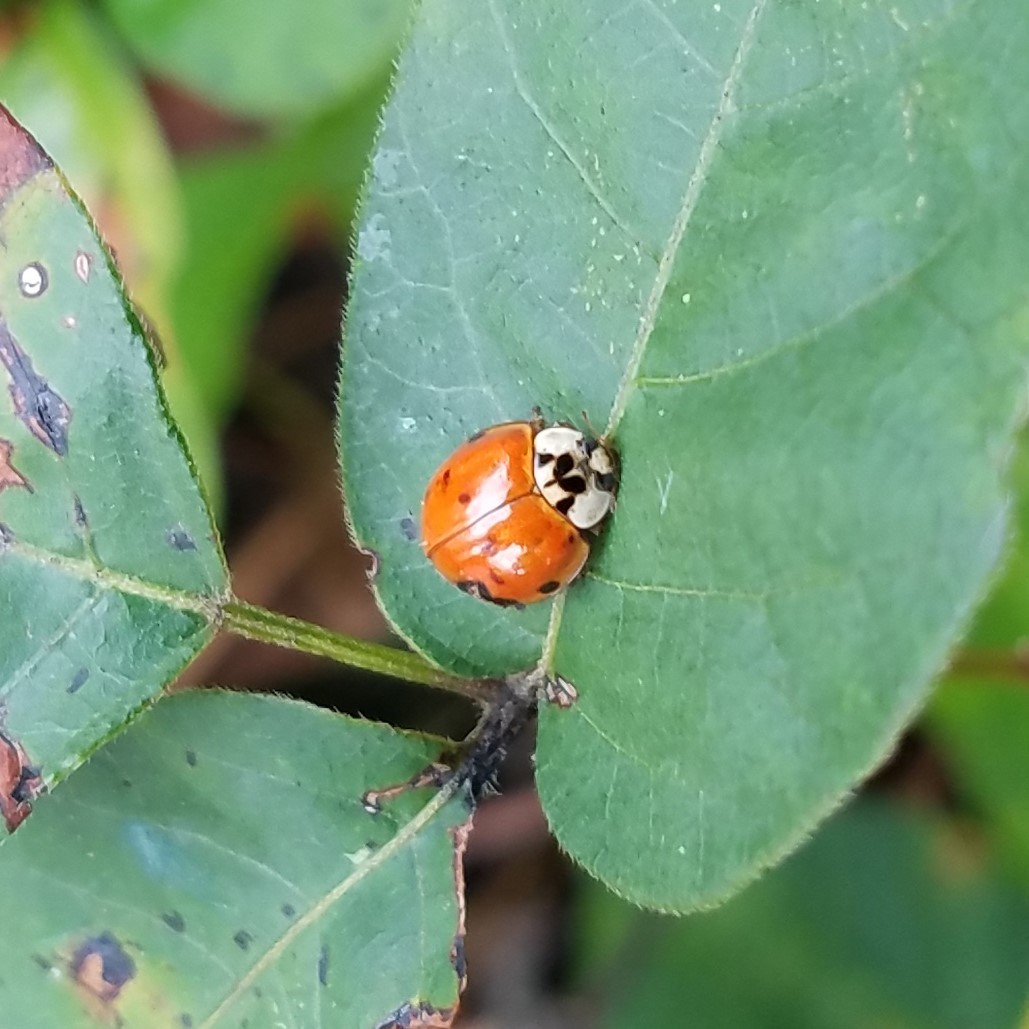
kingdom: Animalia
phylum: Arthropoda
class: Insecta
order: Coleoptera
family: Coccinellidae
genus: Harmonia
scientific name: Harmonia axyridis
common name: Harlequin ladybird
